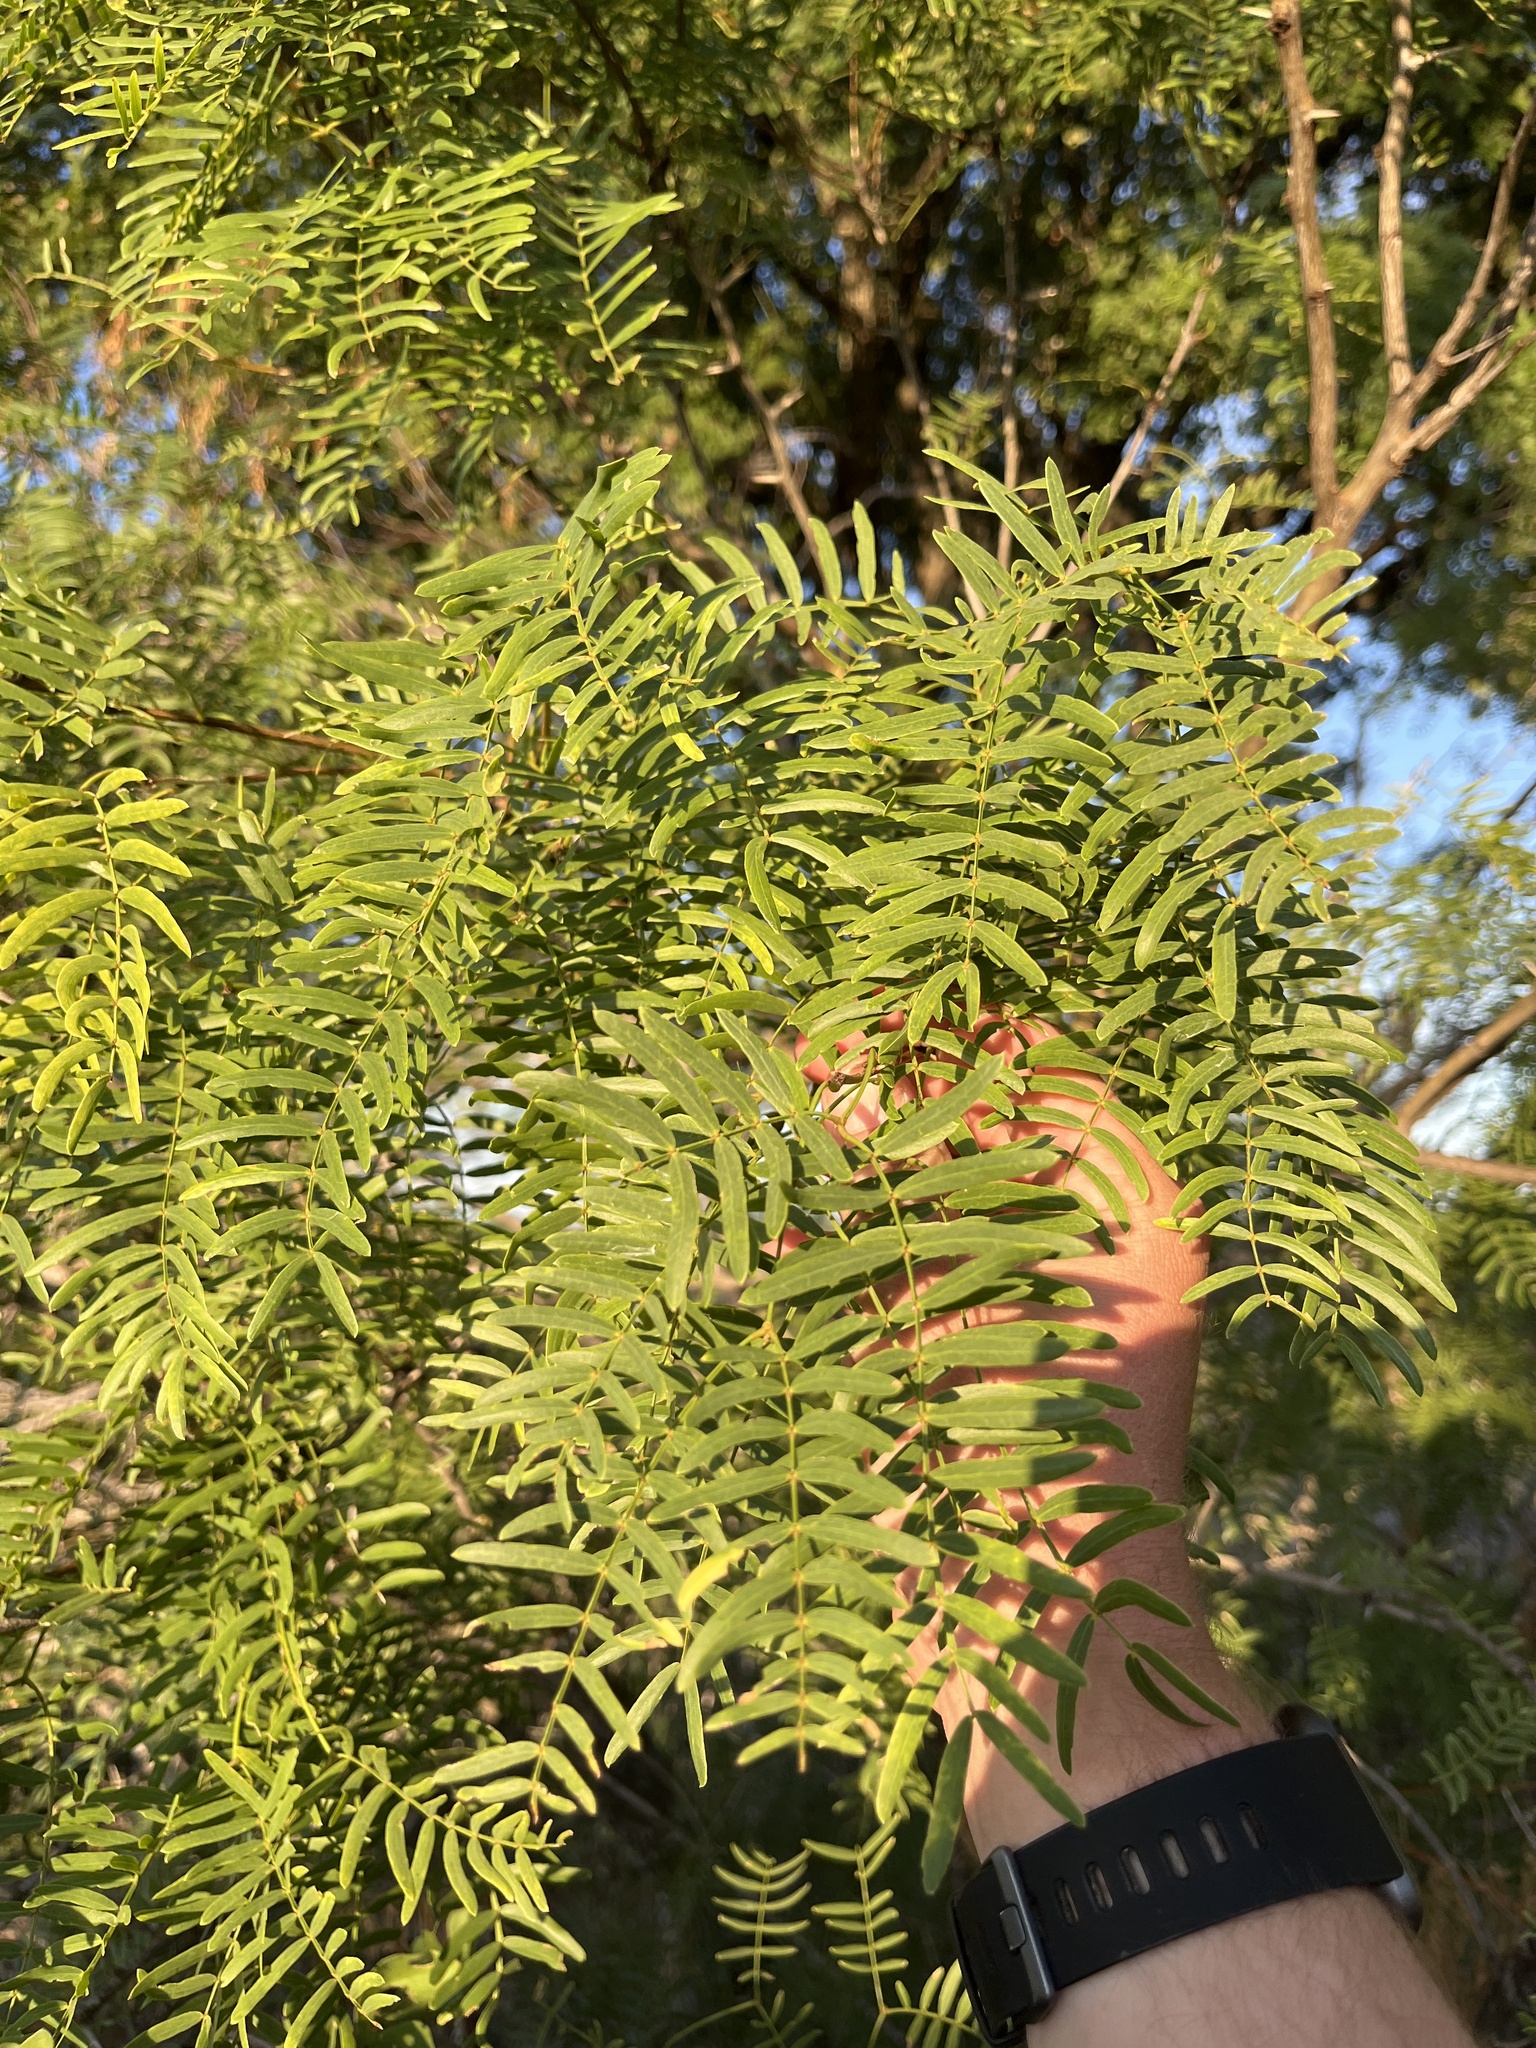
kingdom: Plantae
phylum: Tracheophyta
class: Magnoliopsida
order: Fabales
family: Fabaceae
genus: Prosopis
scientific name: Prosopis glandulosa
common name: Honey mesquite
